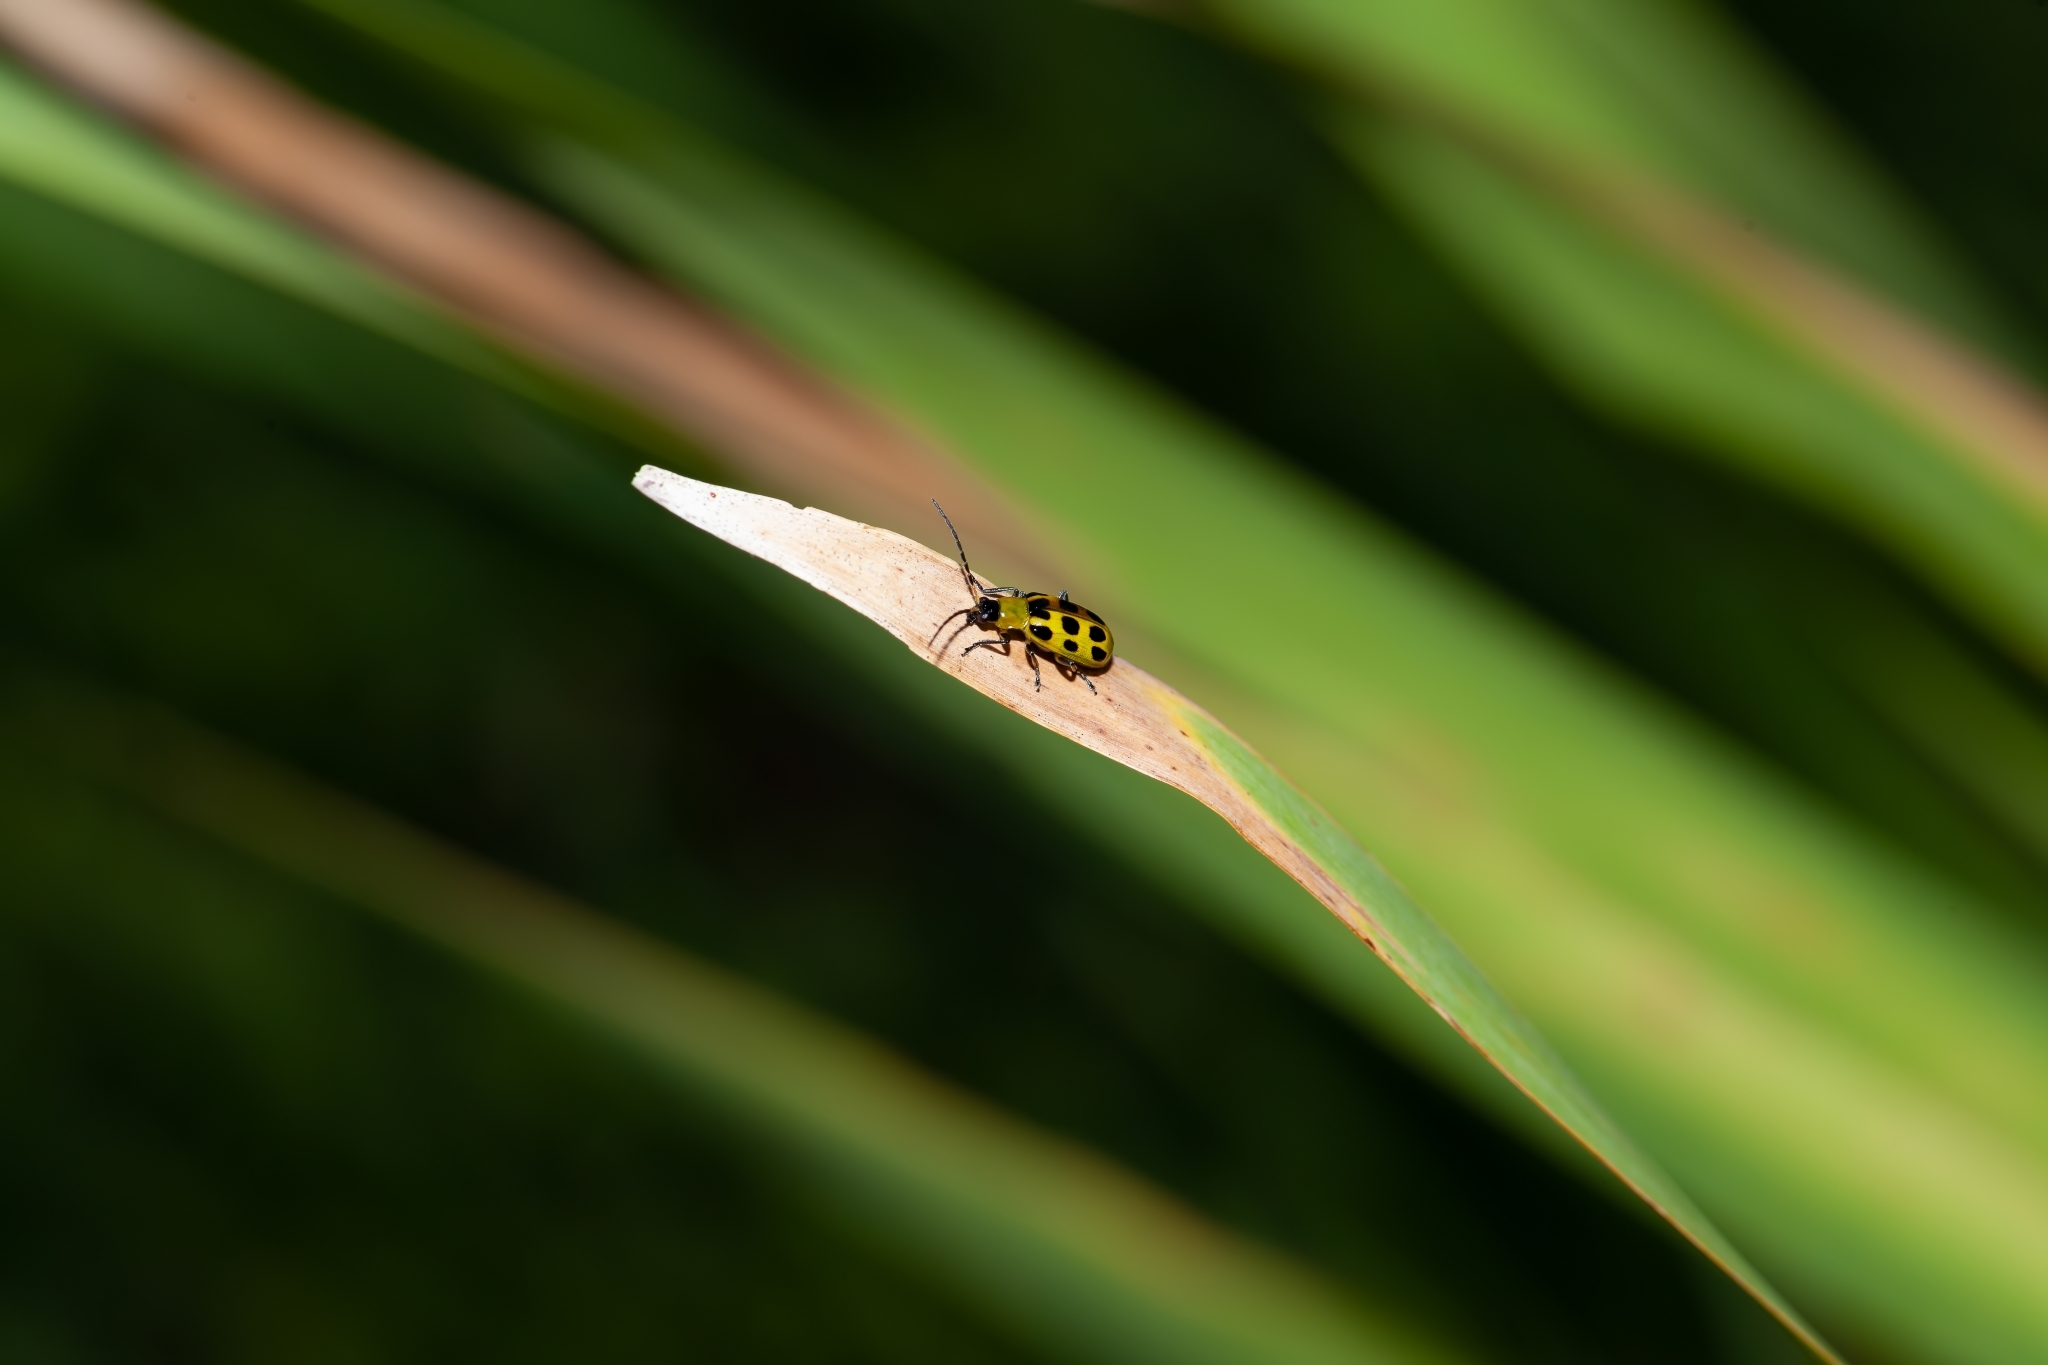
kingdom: Animalia
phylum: Arthropoda
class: Insecta
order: Coleoptera
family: Chrysomelidae
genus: Diabrotica
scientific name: Diabrotica undecimpunctata
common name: Spotted cucumber beetle
